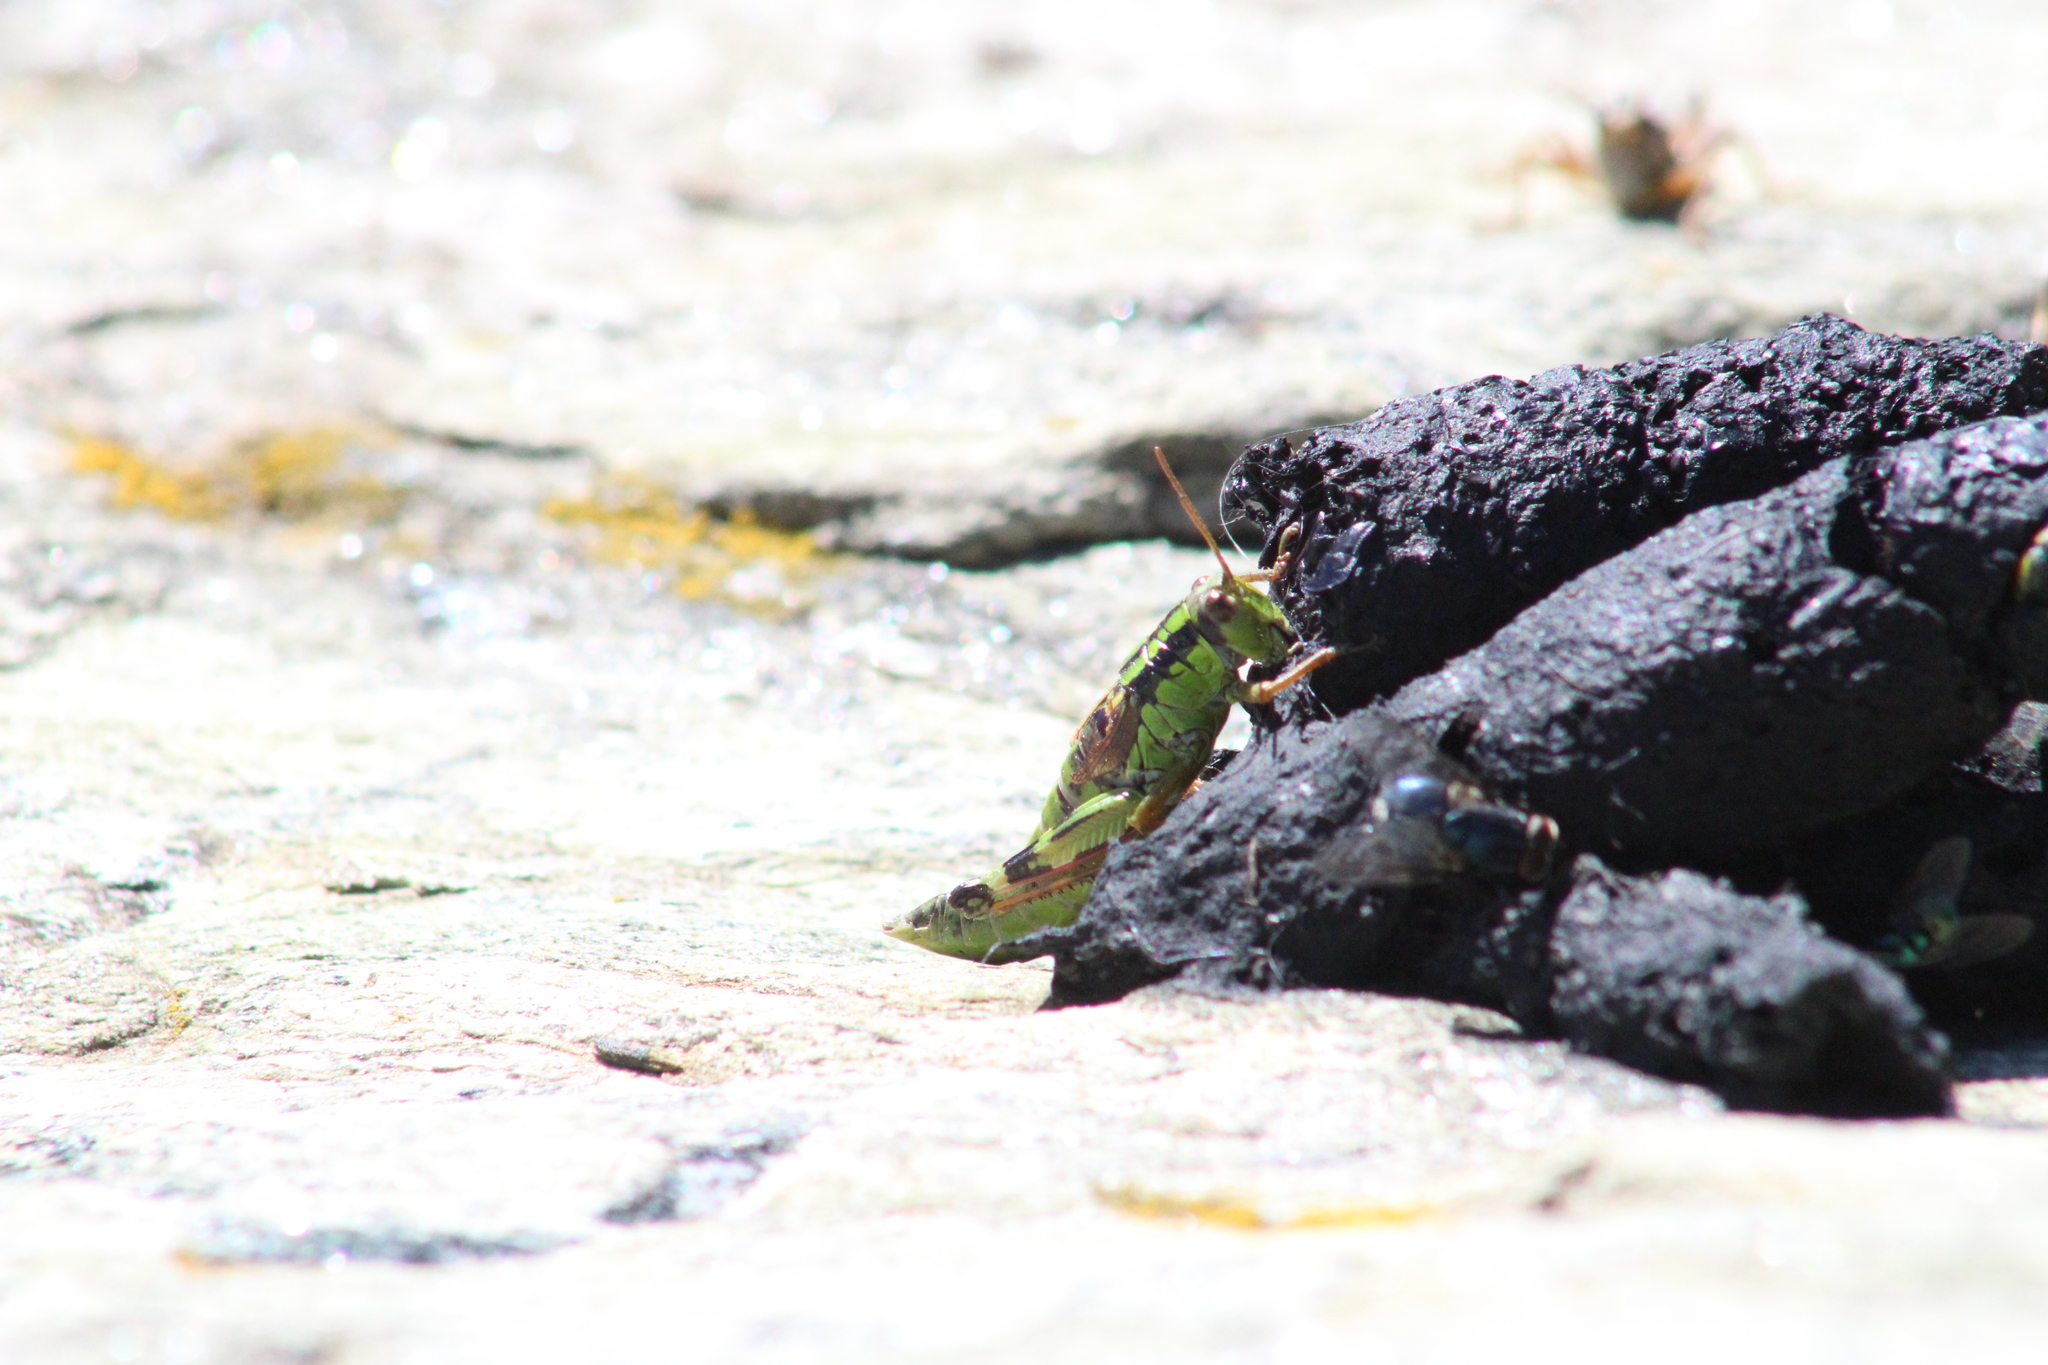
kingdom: Animalia
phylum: Arthropoda
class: Insecta
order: Orthoptera
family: Acrididae
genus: Miramella
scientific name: Miramella alpina
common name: Green mountain grasshopper
